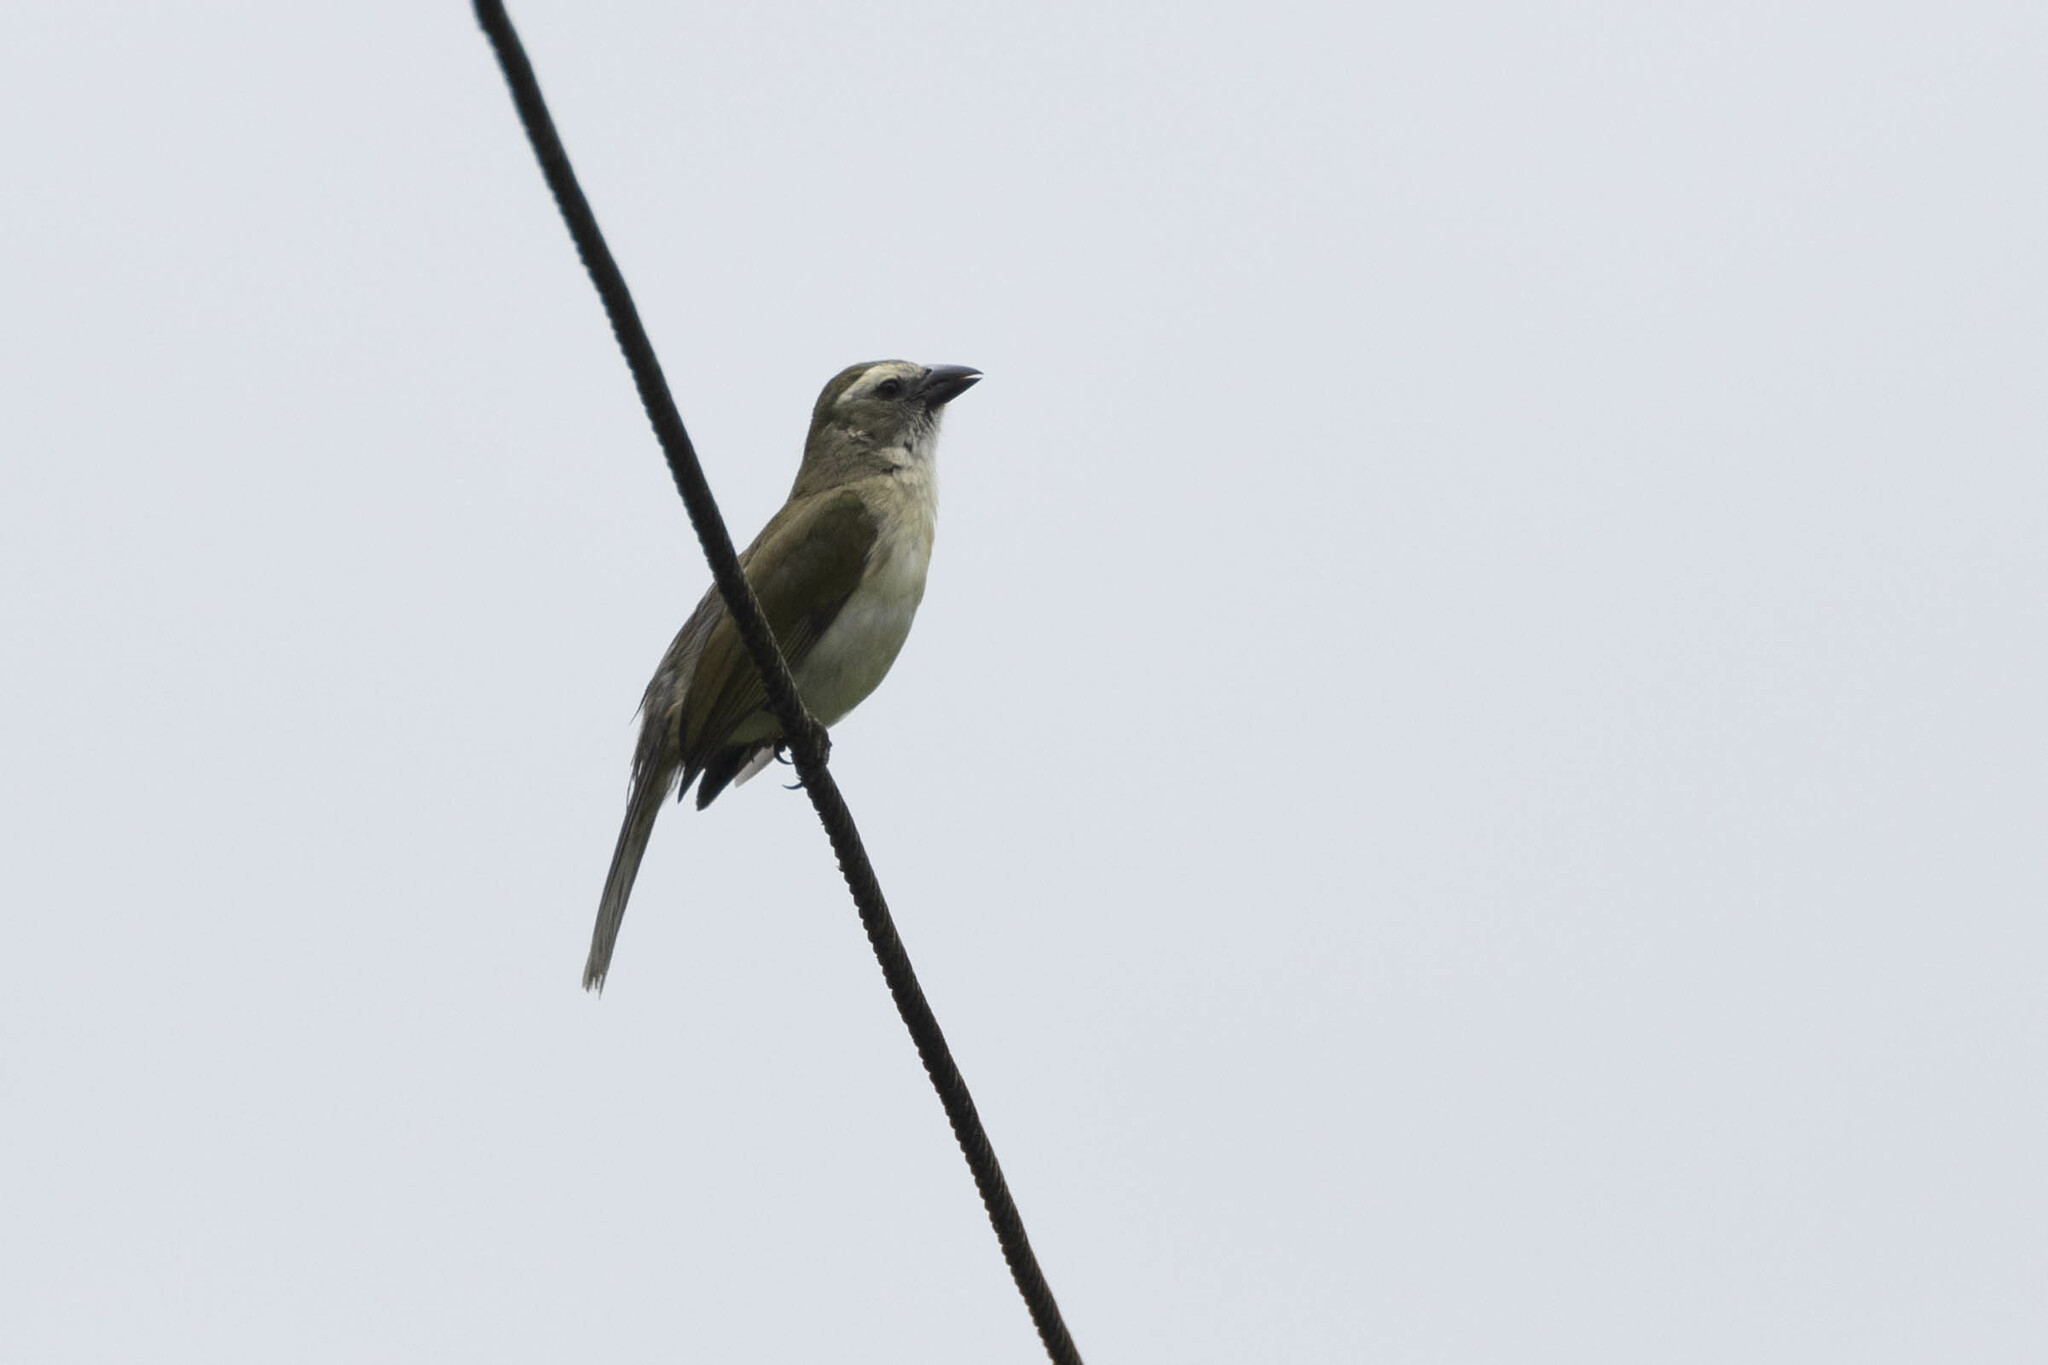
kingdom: Animalia
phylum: Chordata
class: Aves
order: Passeriformes
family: Thraupidae
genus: Saltator
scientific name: Saltator striatipectus
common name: Streaked saltator
